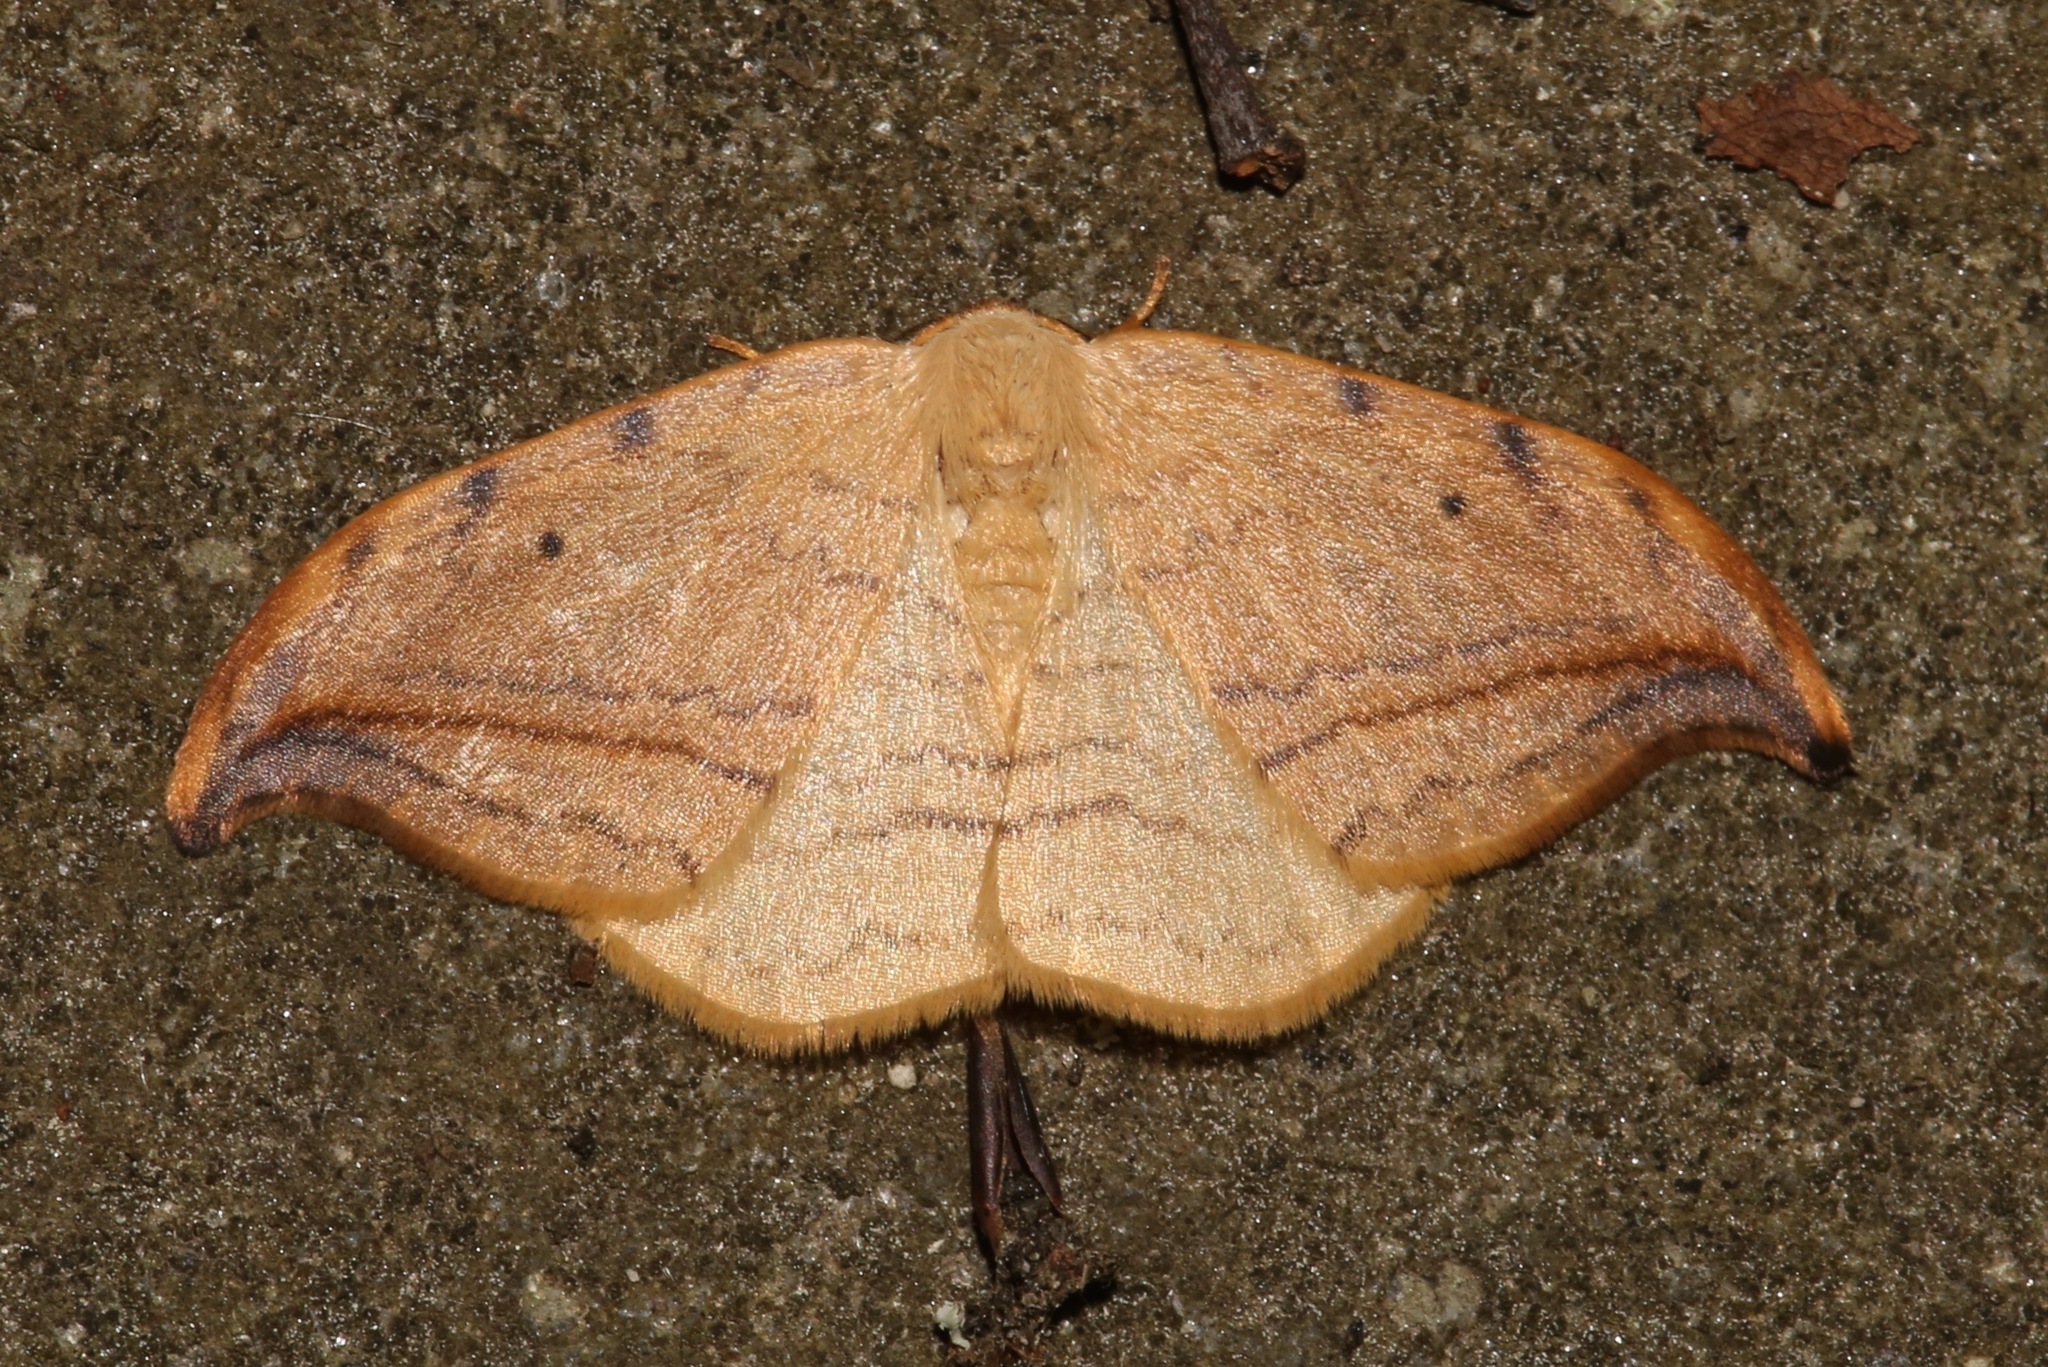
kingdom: Animalia
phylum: Arthropoda
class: Insecta
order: Lepidoptera
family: Drepanidae
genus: Drepana
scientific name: Drepana arcuata
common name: Arched hooktip moth
